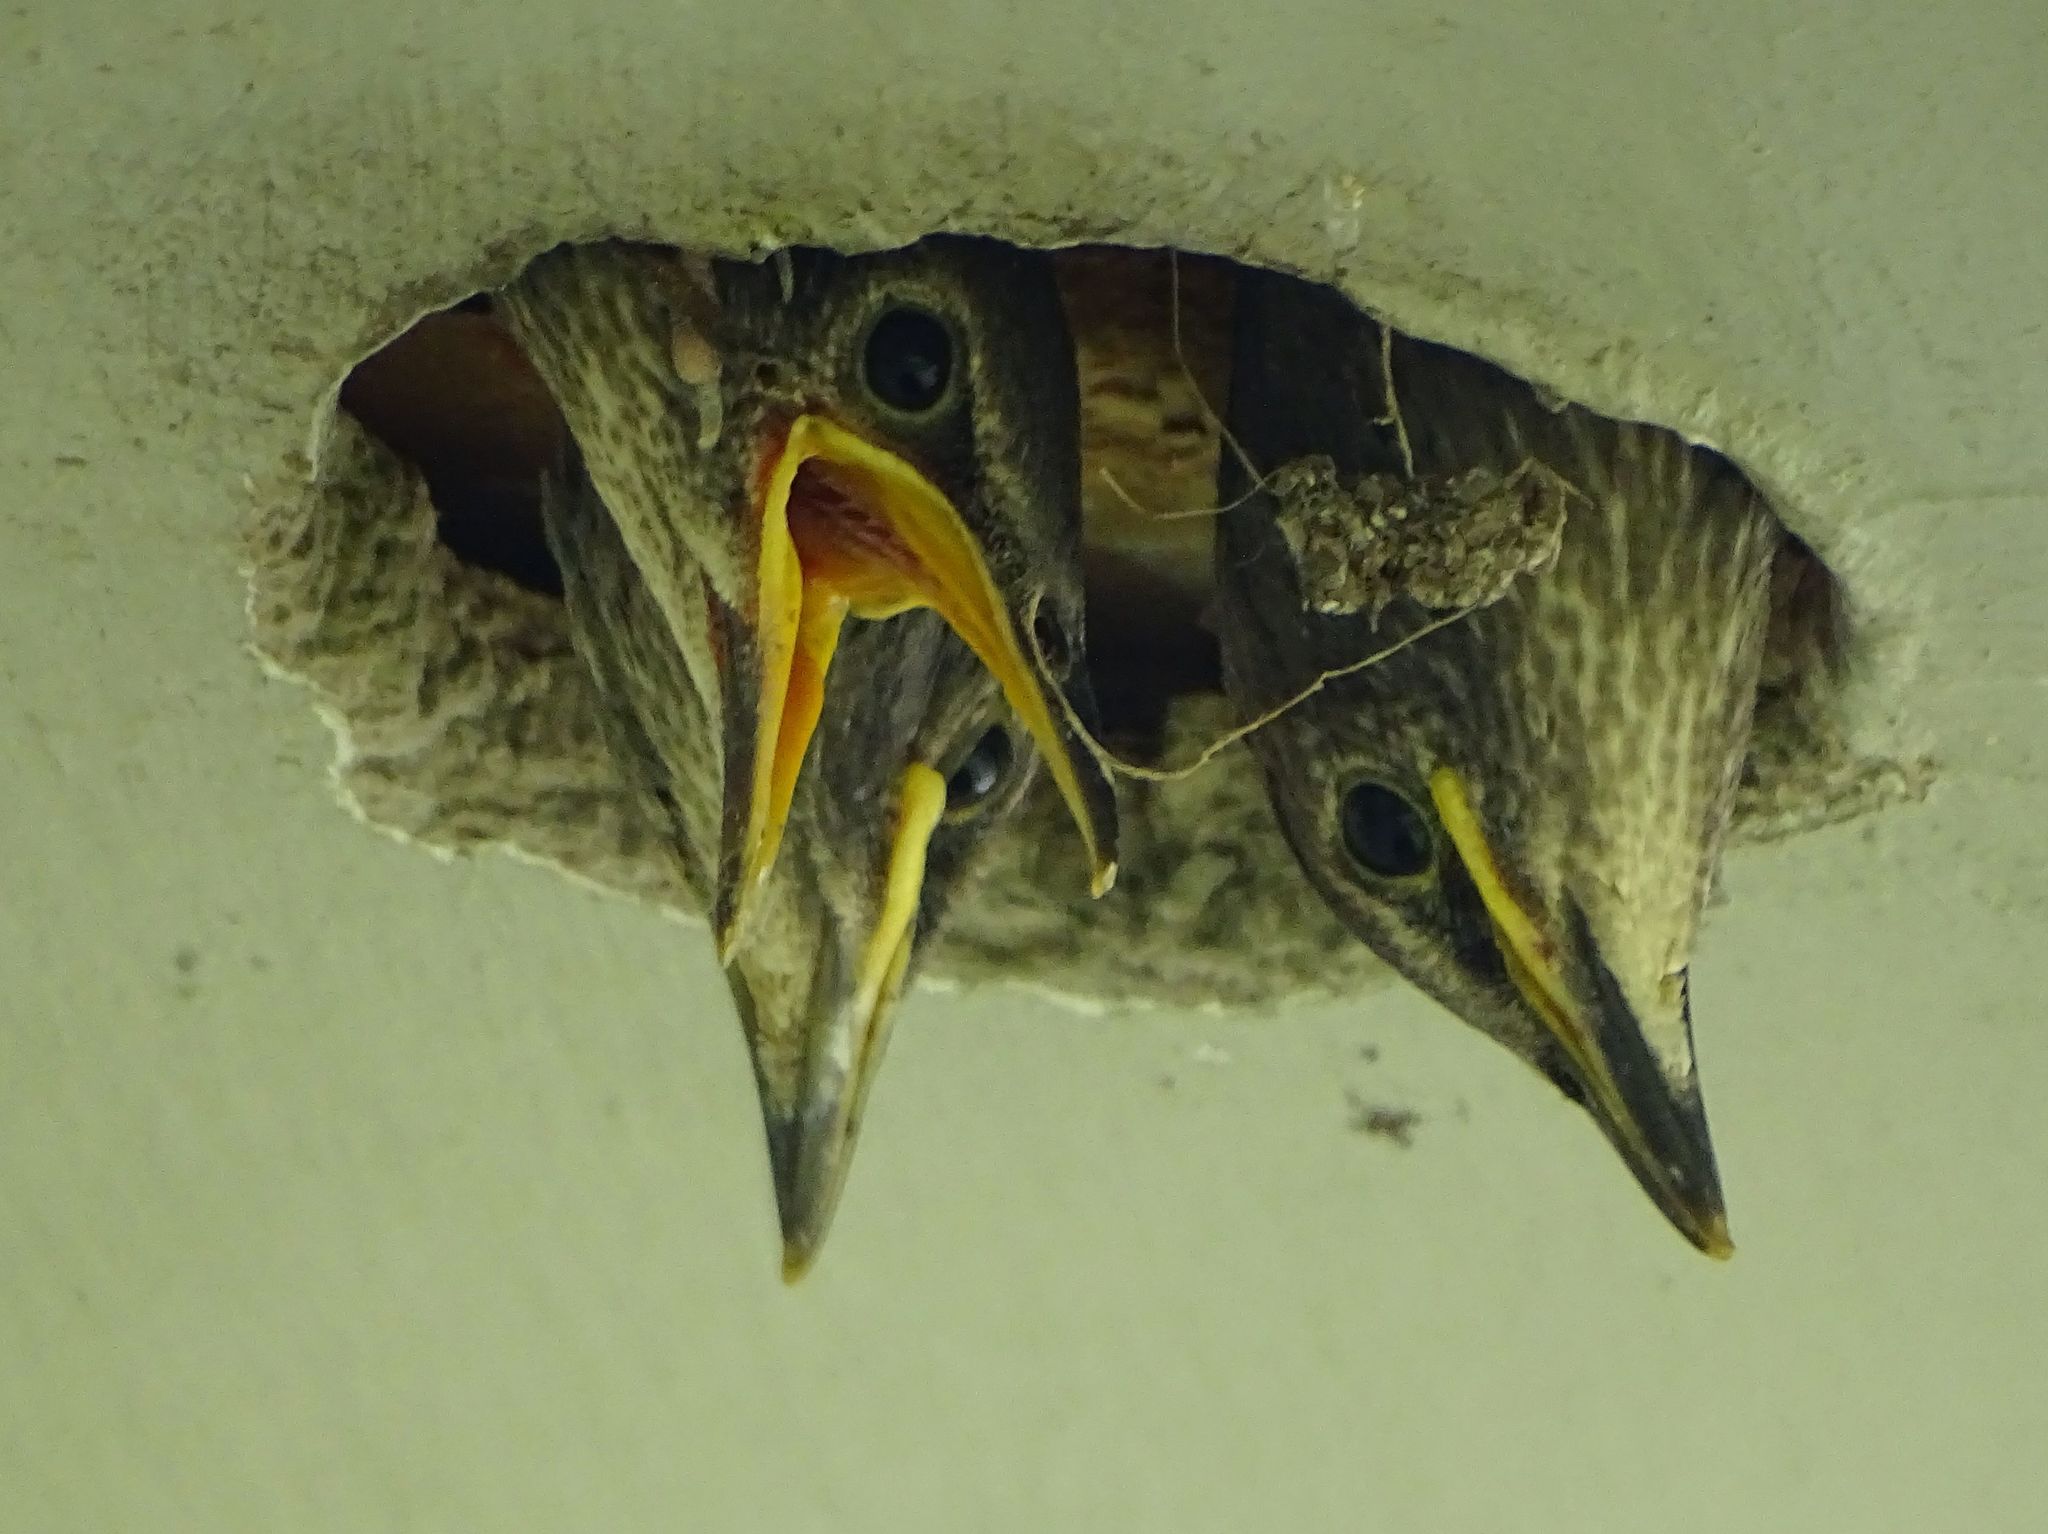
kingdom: Animalia
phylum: Chordata
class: Aves
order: Passeriformes
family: Sturnidae
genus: Sturnus
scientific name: Sturnus vulgaris
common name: Common starling
